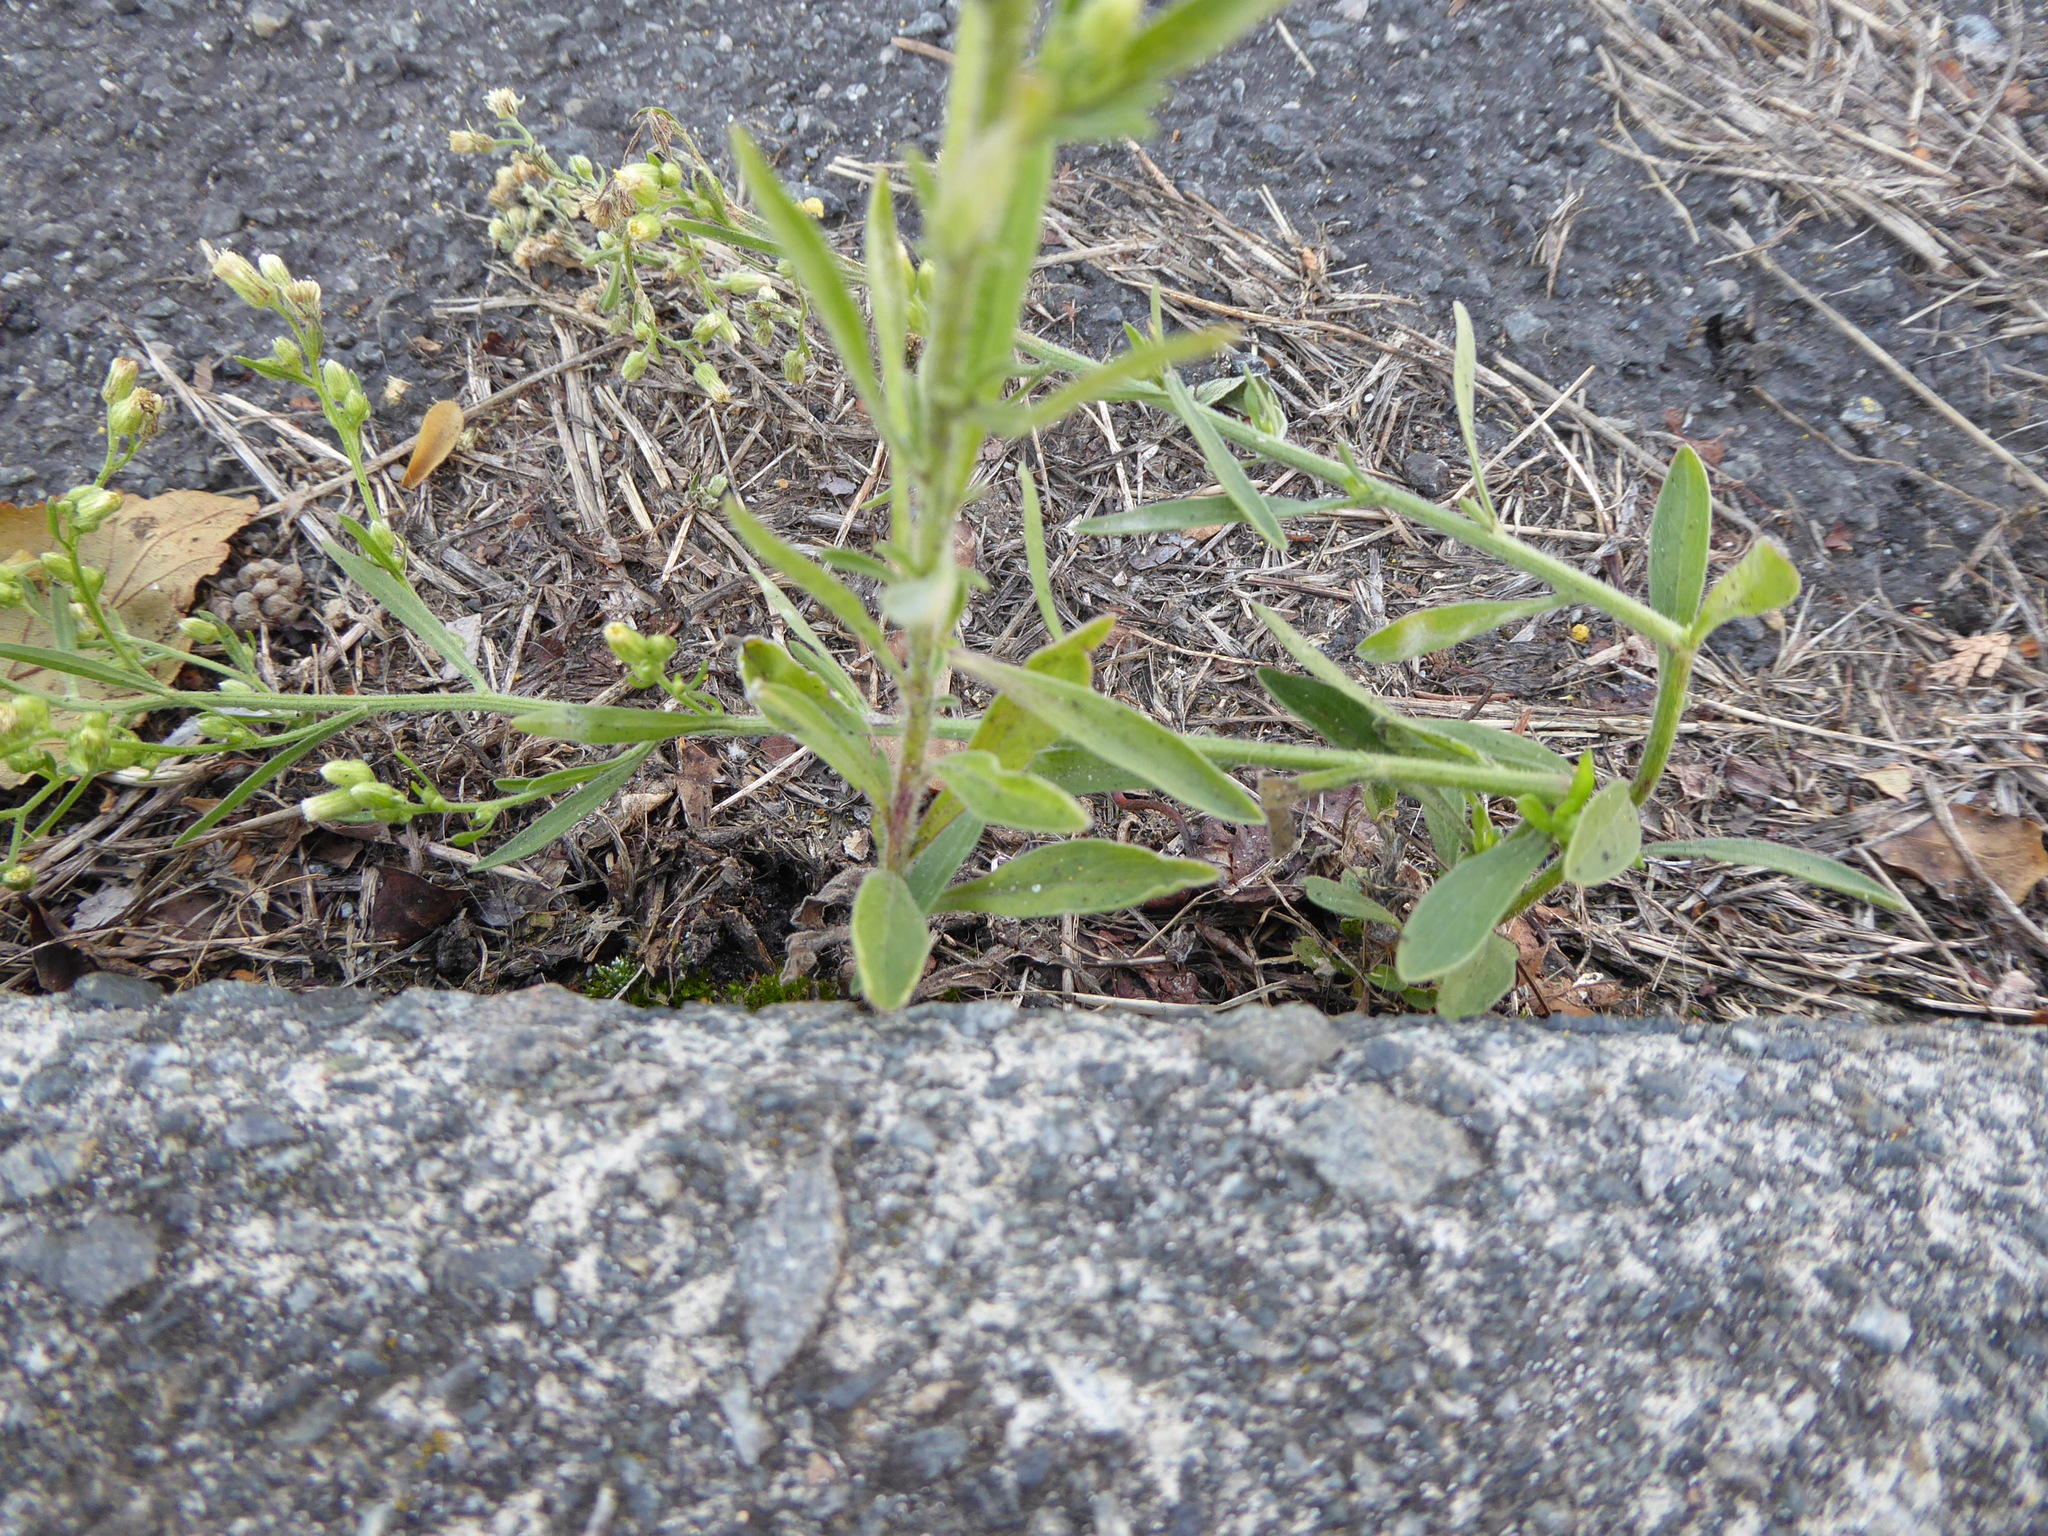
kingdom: Plantae
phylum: Tracheophyta
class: Magnoliopsida
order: Asterales
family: Asteraceae
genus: Erigeron
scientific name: Erigeron sumatrensis
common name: Daisy
